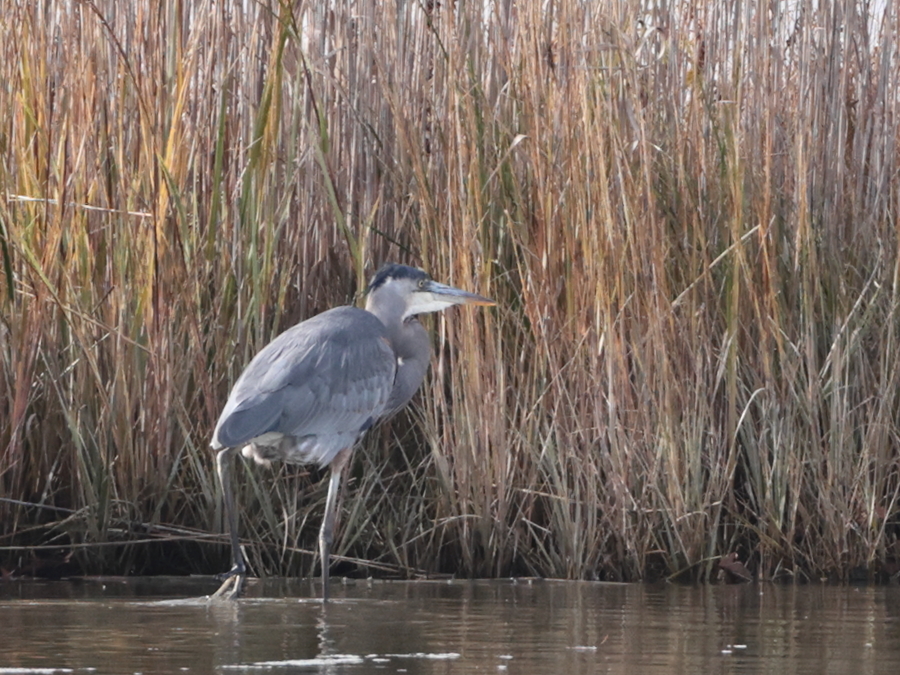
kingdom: Animalia
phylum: Chordata
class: Aves
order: Pelecaniformes
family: Ardeidae
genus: Ardea
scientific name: Ardea herodias
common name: Great blue heron
